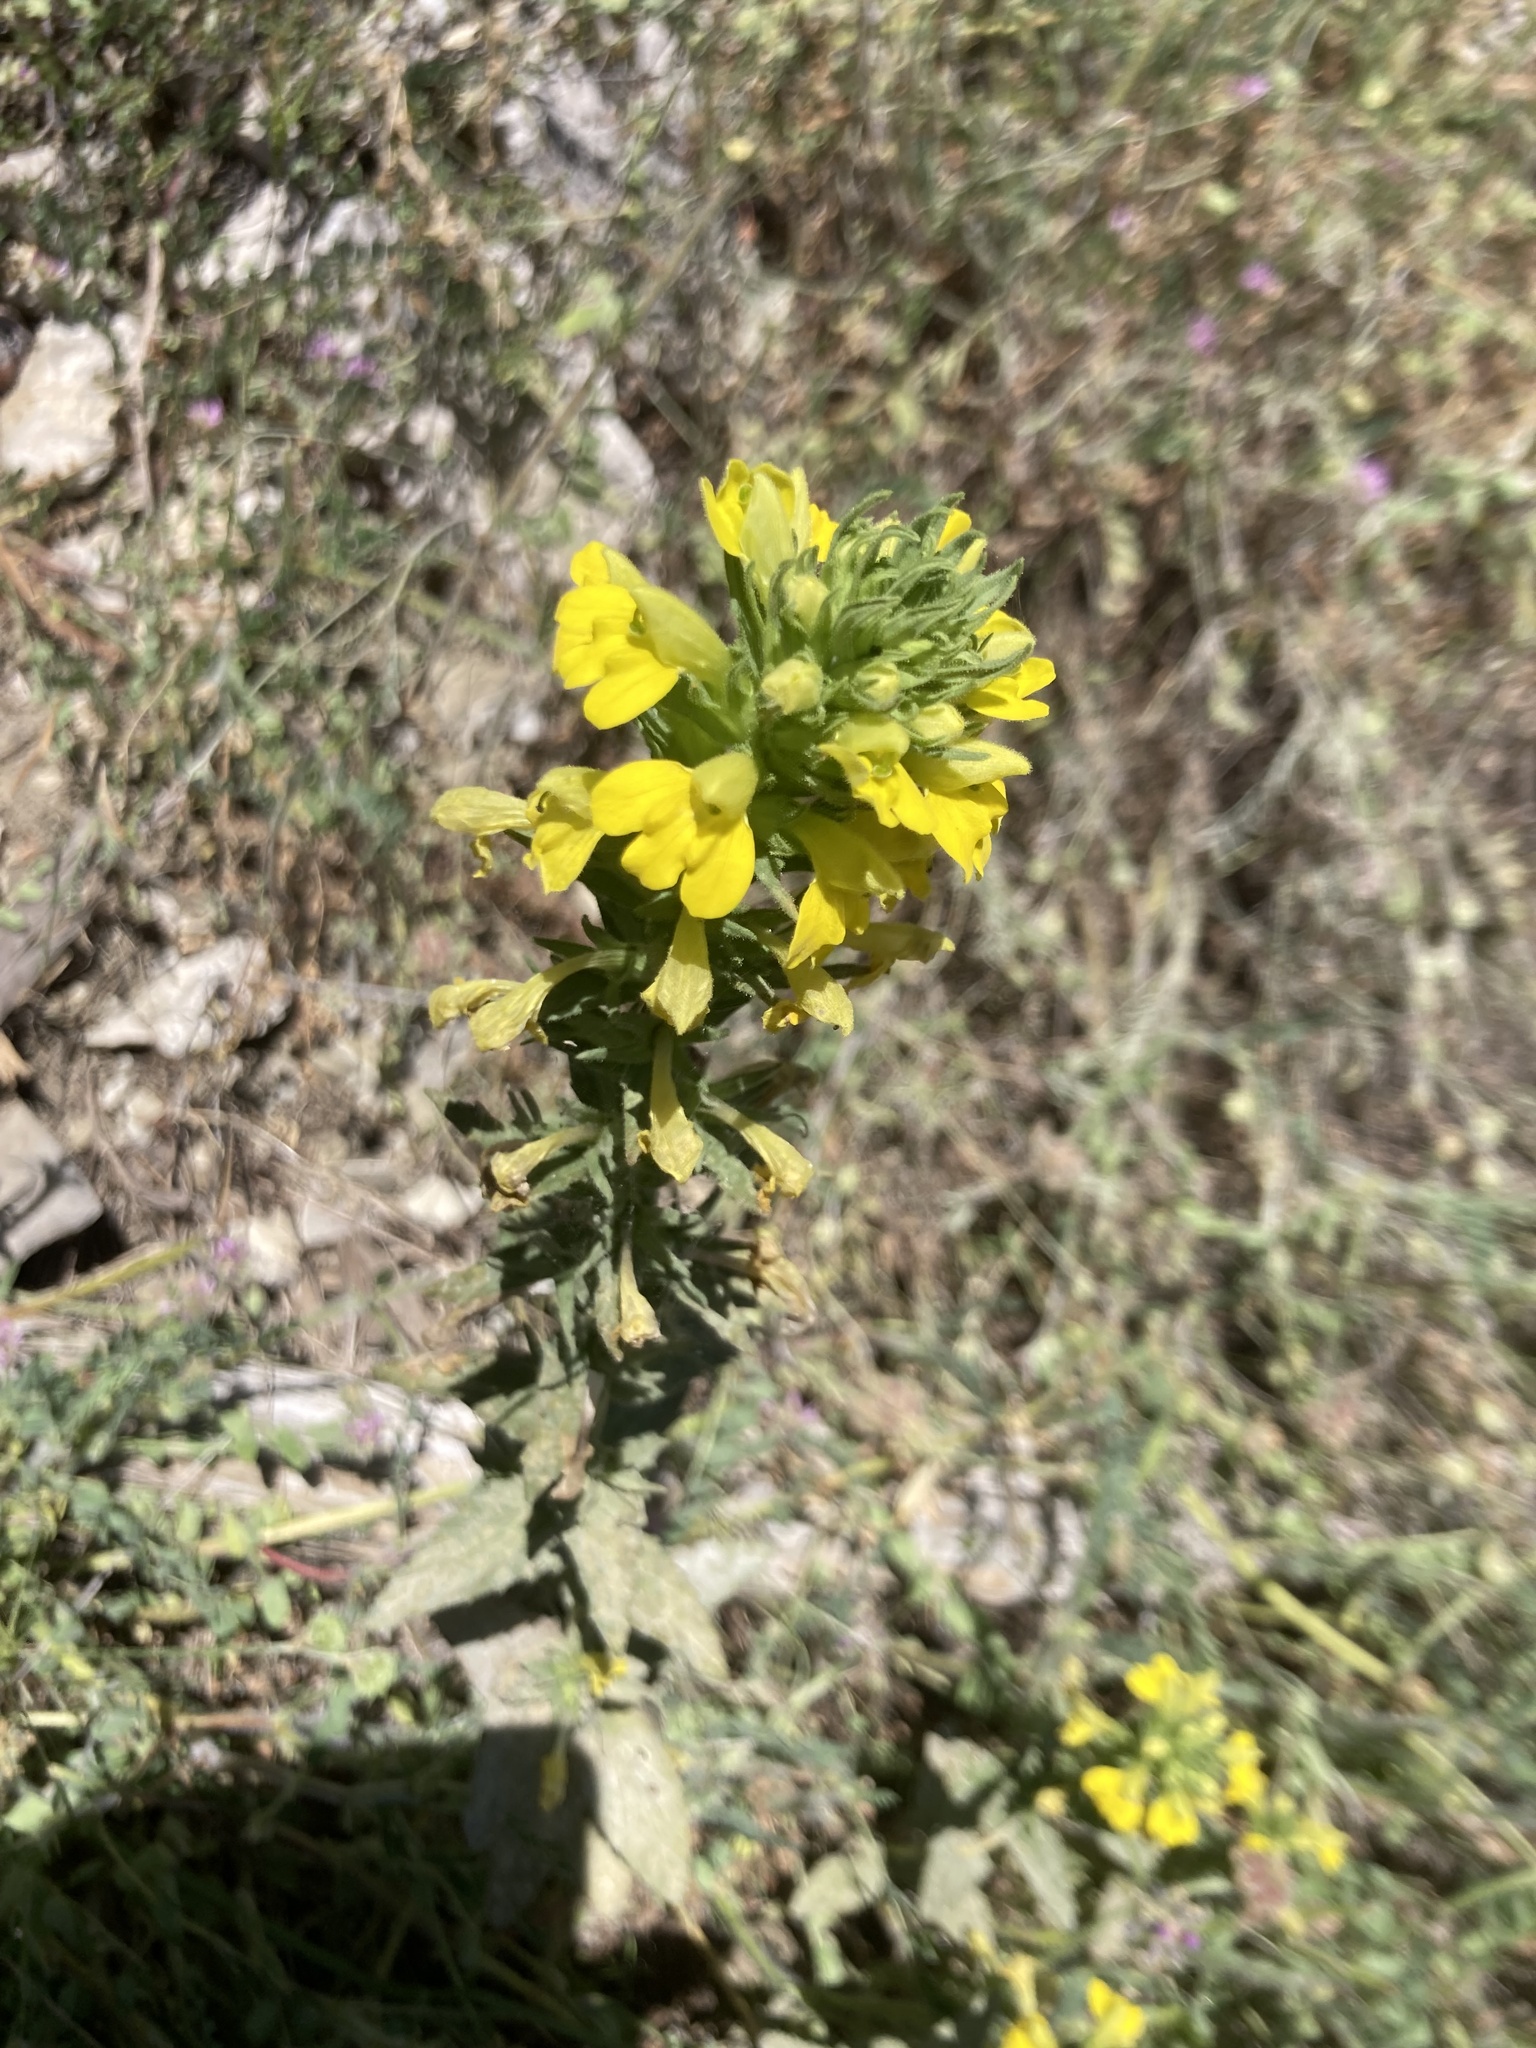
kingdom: Plantae
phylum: Tracheophyta
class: Magnoliopsida
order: Lamiales
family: Orobanchaceae
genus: Bellardia
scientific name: Bellardia viscosa
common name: Sticky parentucellia
